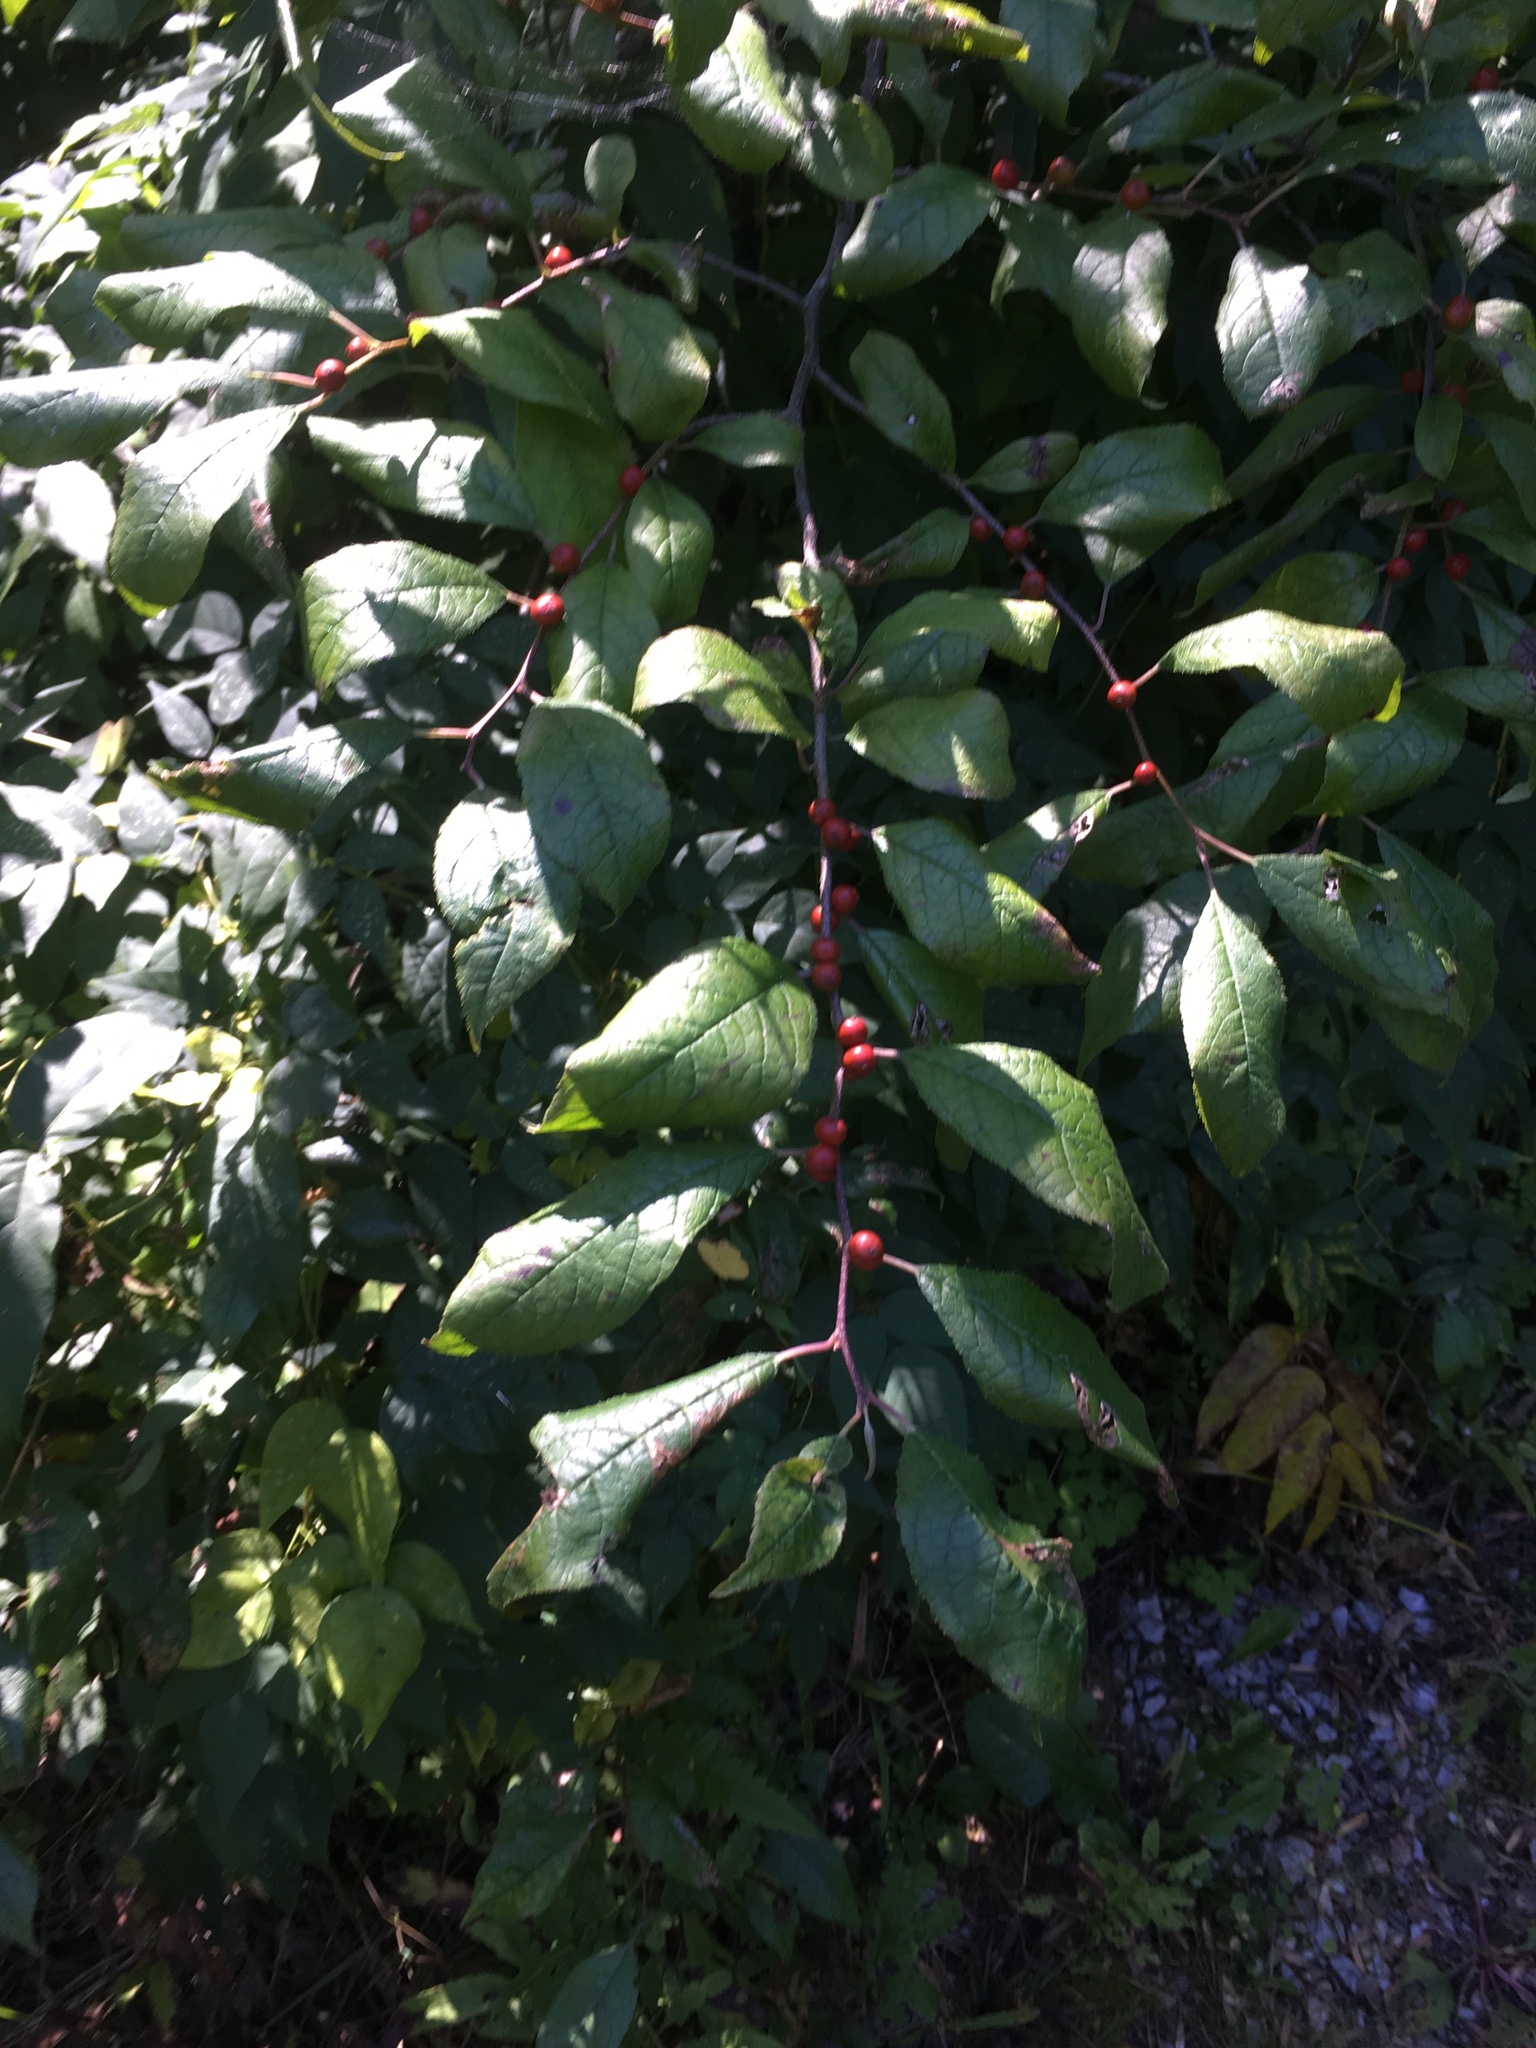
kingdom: Plantae
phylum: Tracheophyta
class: Magnoliopsida
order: Aquifoliales
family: Aquifoliaceae
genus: Ilex
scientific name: Ilex verticillata
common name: Virginia winterberry
